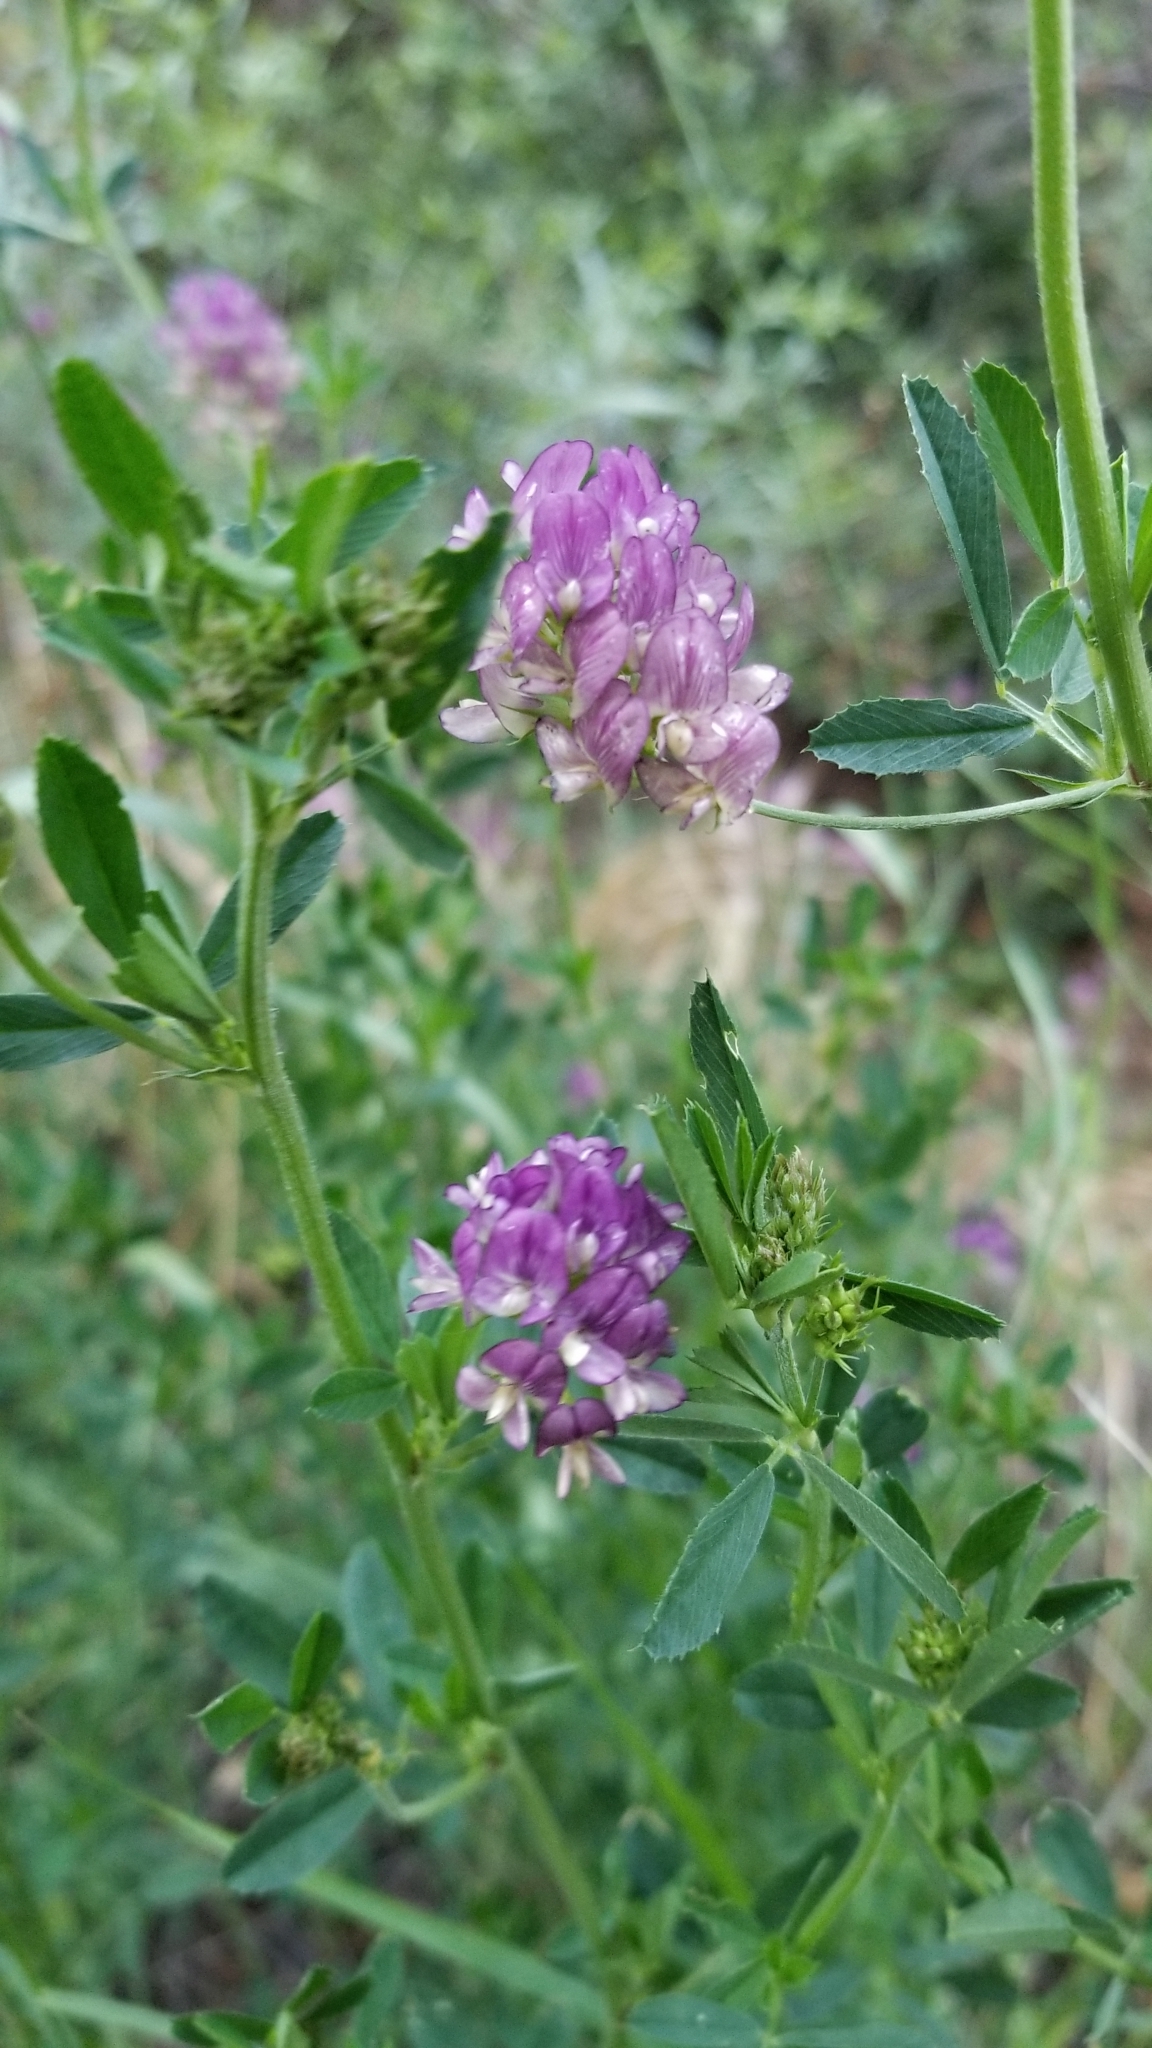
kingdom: Plantae
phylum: Tracheophyta
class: Magnoliopsida
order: Fabales
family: Fabaceae
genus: Medicago
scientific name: Medicago sativa
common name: Alfalfa
